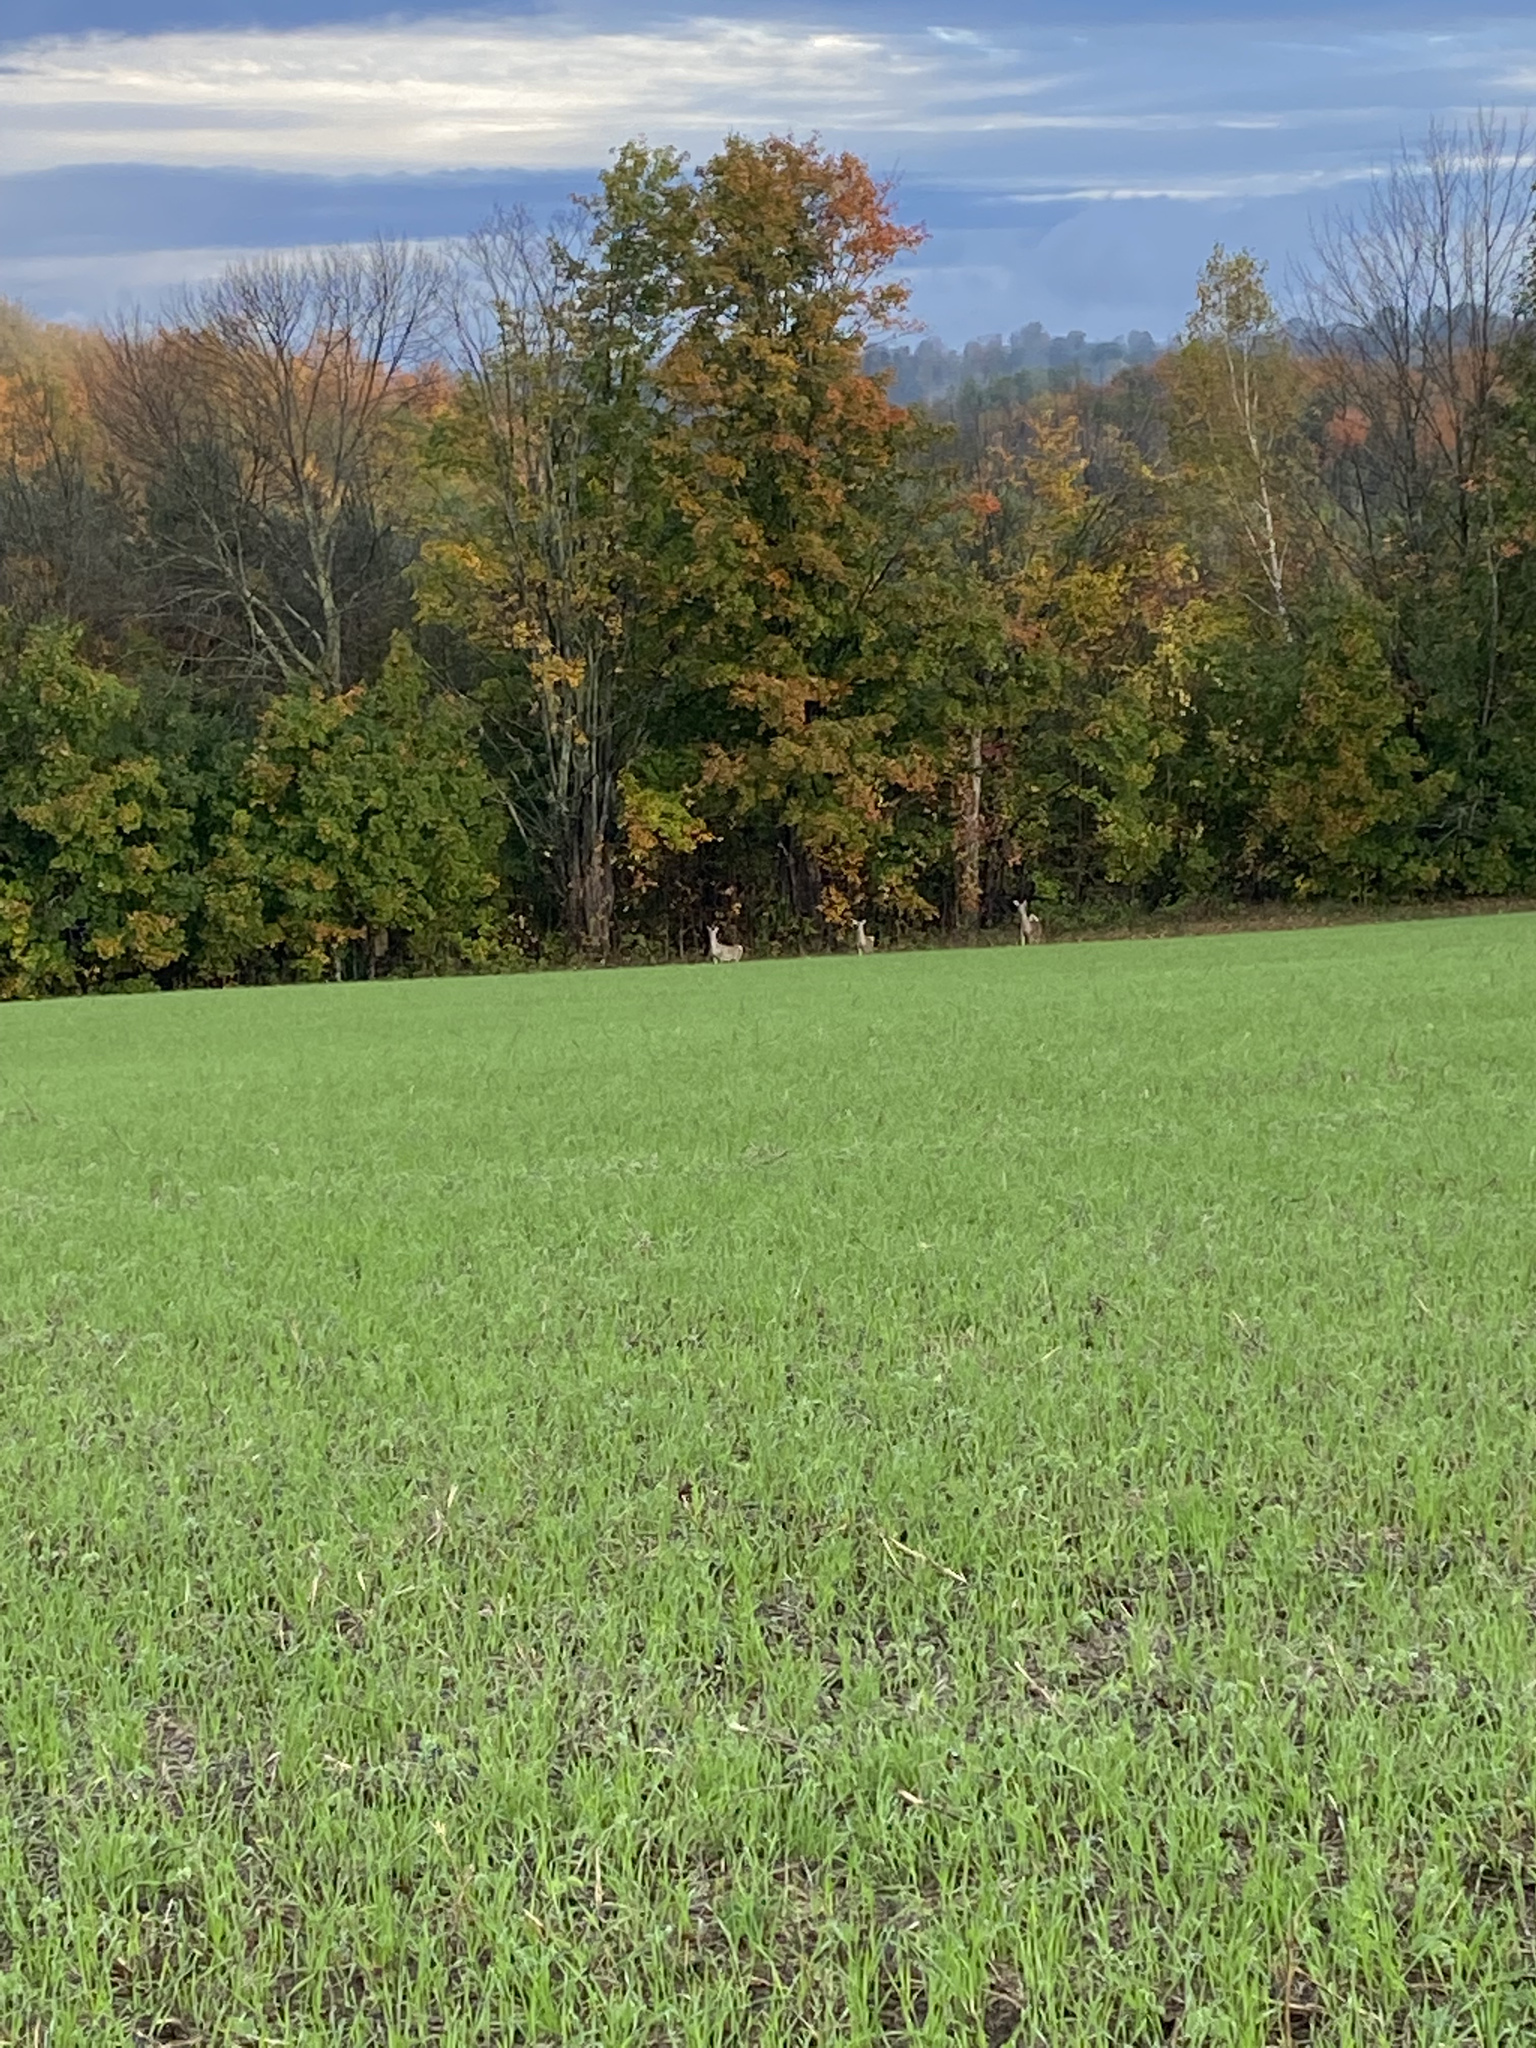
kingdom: Animalia
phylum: Chordata
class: Mammalia
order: Artiodactyla
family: Cervidae
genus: Odocoileus
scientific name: Odocoileus virginianus
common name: White-tailed deer
